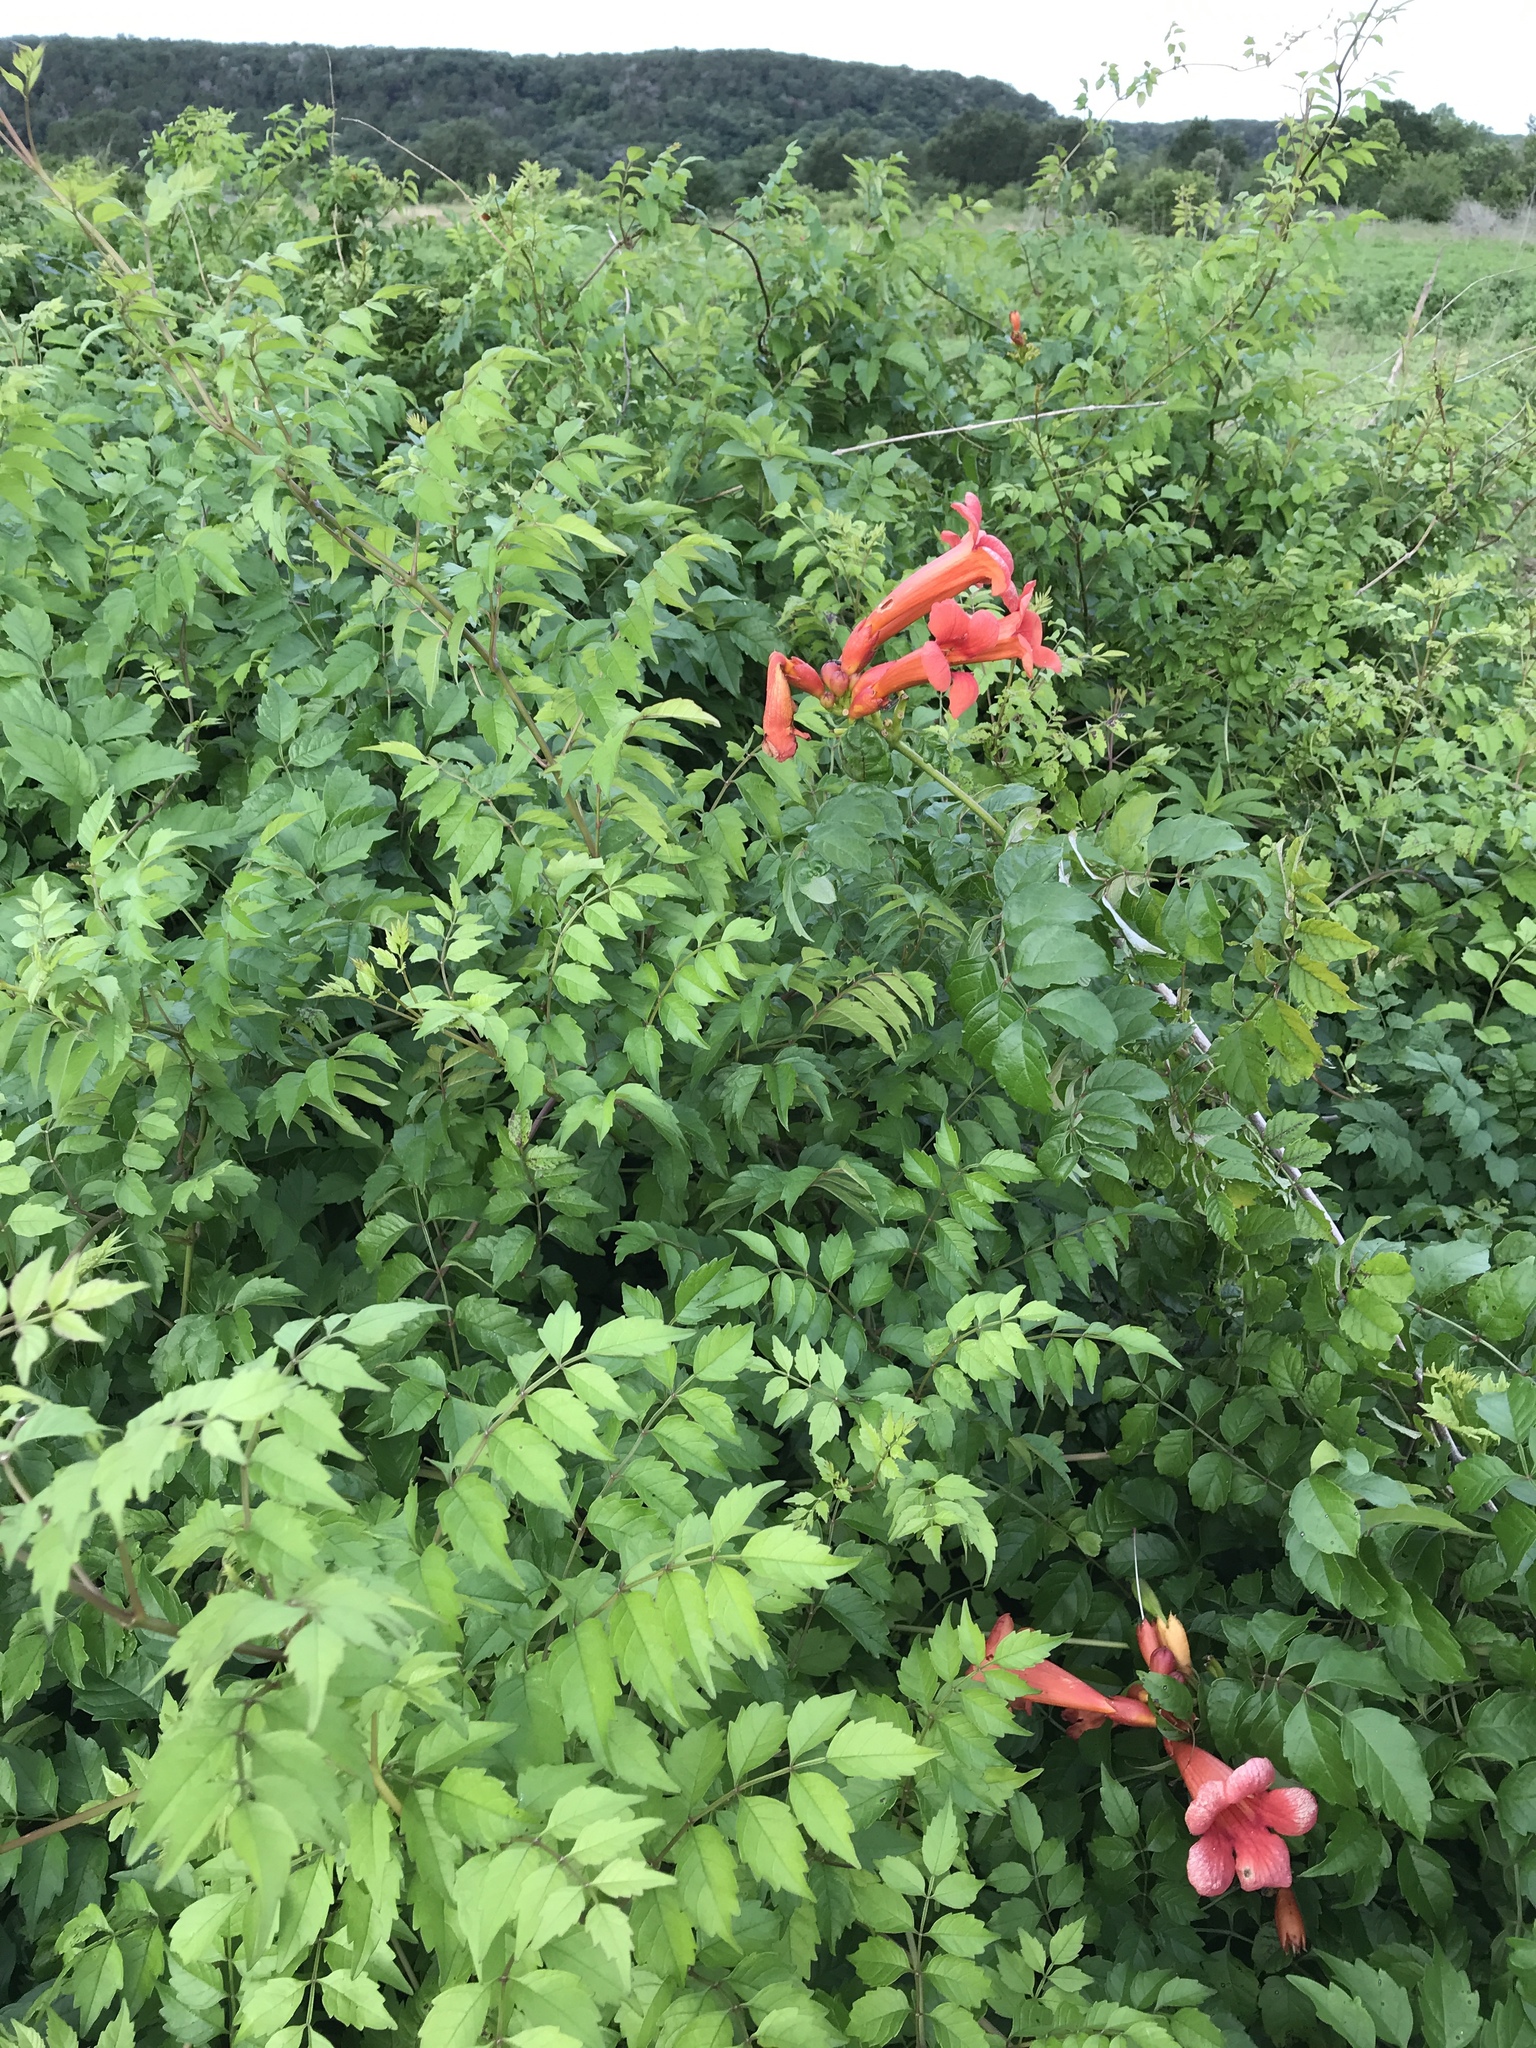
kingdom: Plantae
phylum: Tracheophyta
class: Magnoliopsida
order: Lamiales
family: Bignoniaceae
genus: Campsis
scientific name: Campsis radicans
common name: Trumpet-creeper
